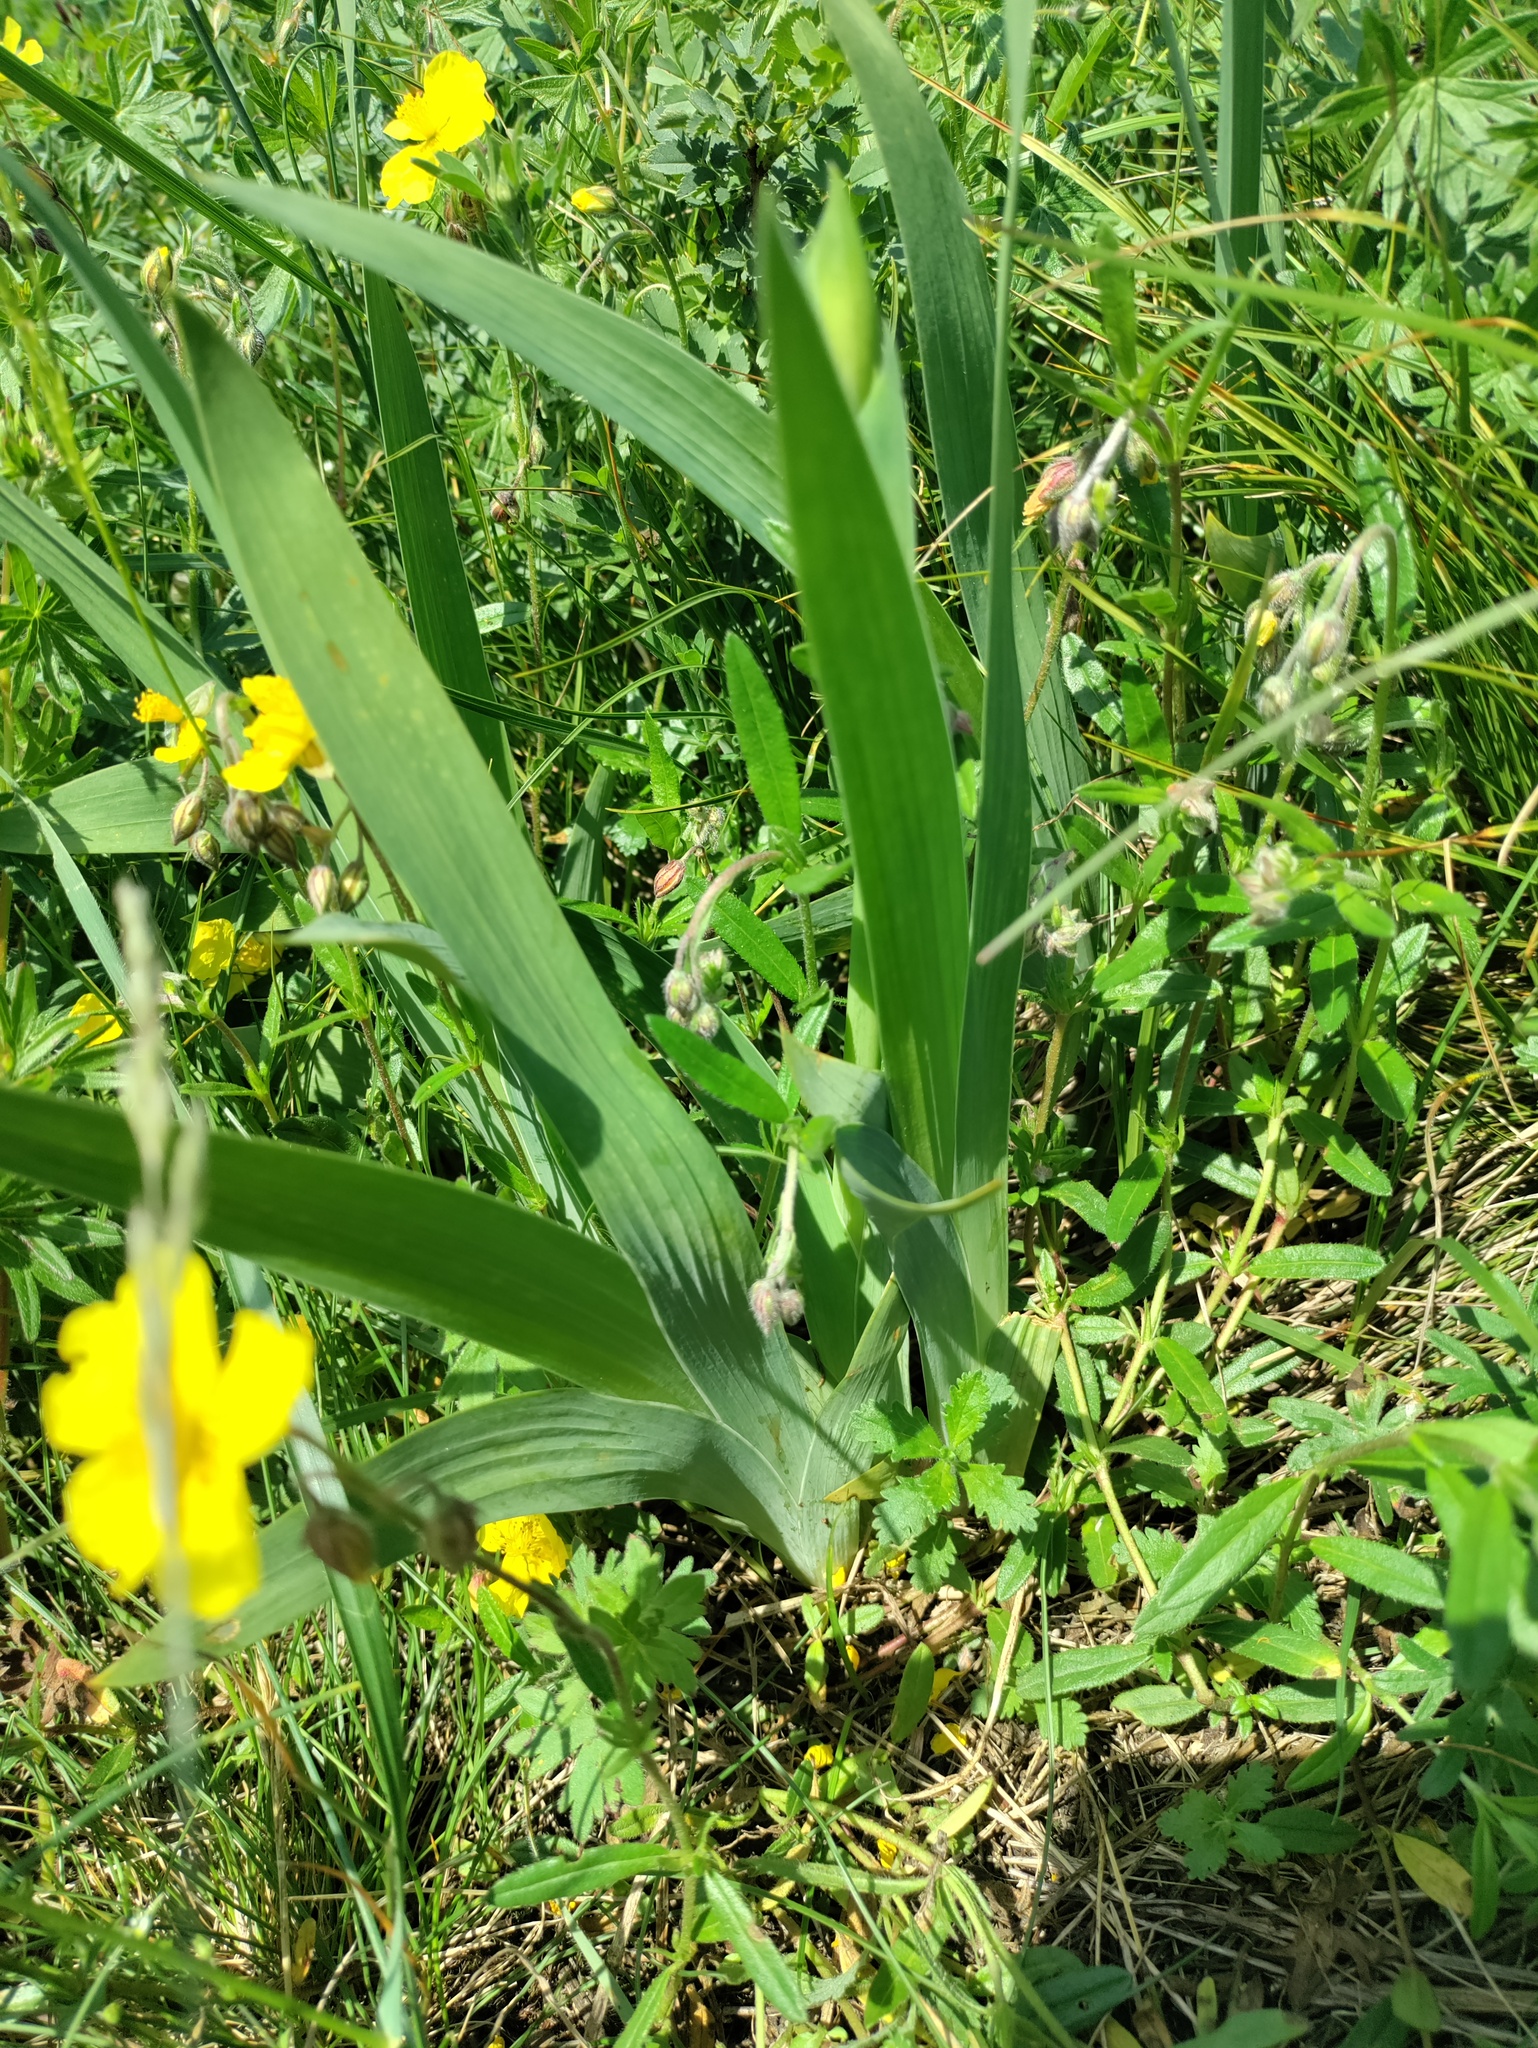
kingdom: Plantae
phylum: Tracheophyta
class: Liliopsida
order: Asparagales
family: Iridaceae
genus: Iris
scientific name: Iris variegata
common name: Hungarian iris
